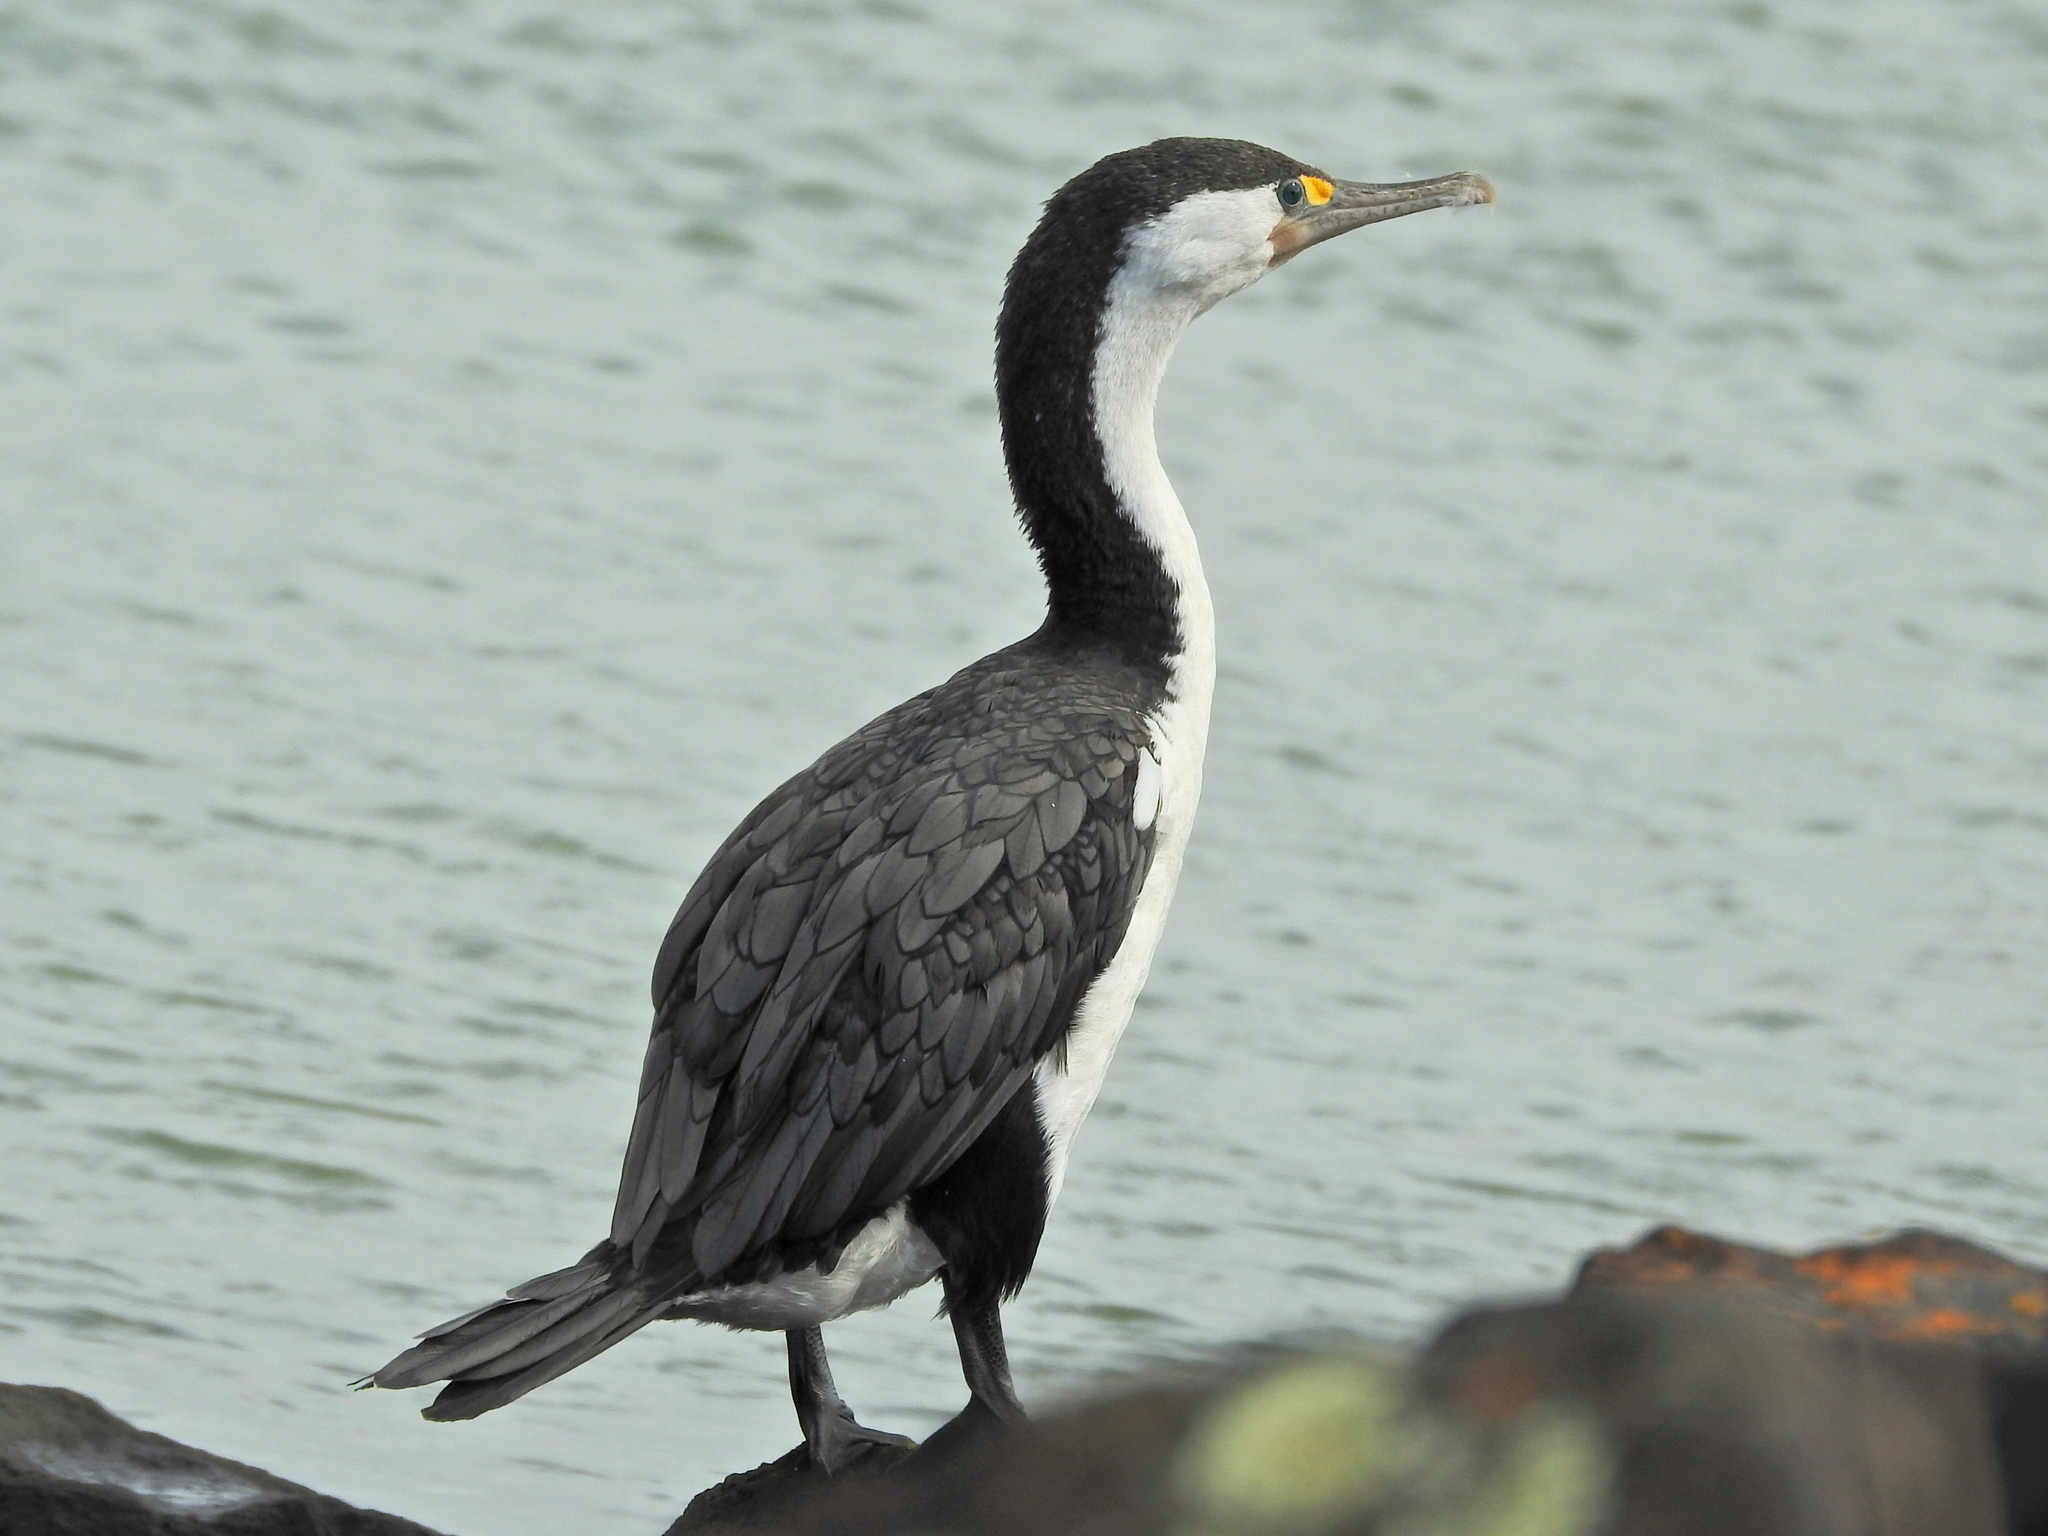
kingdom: Animalia
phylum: Chordata
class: Aves
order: Suliformes
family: Phalacrocoracidae
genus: Phalacrocorax
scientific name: Phalacrocorax varius
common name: Pied cormorant
